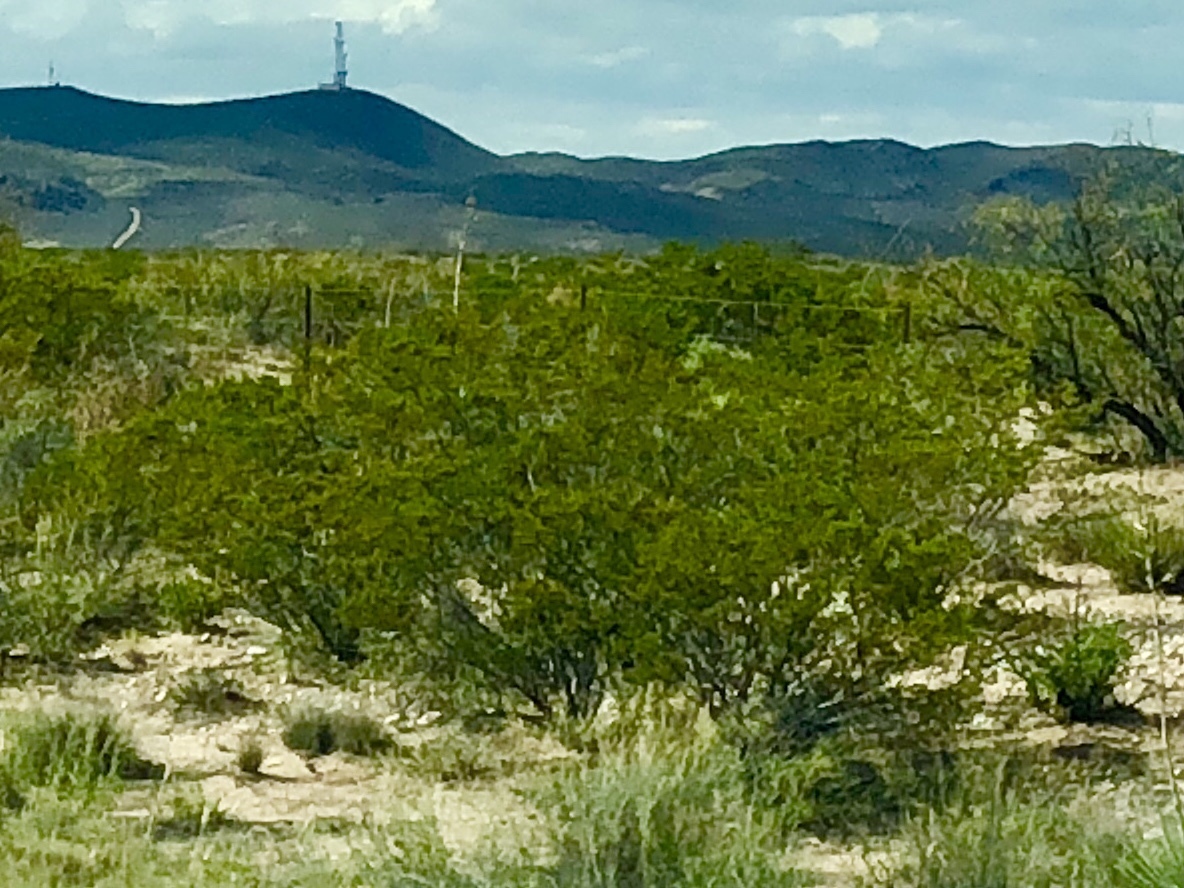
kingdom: Plantae
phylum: Tracheophyta
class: Magnoliopsida
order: Zygophyllales
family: Zygophyllaceae
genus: Larrea
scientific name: Larrea tridentata
